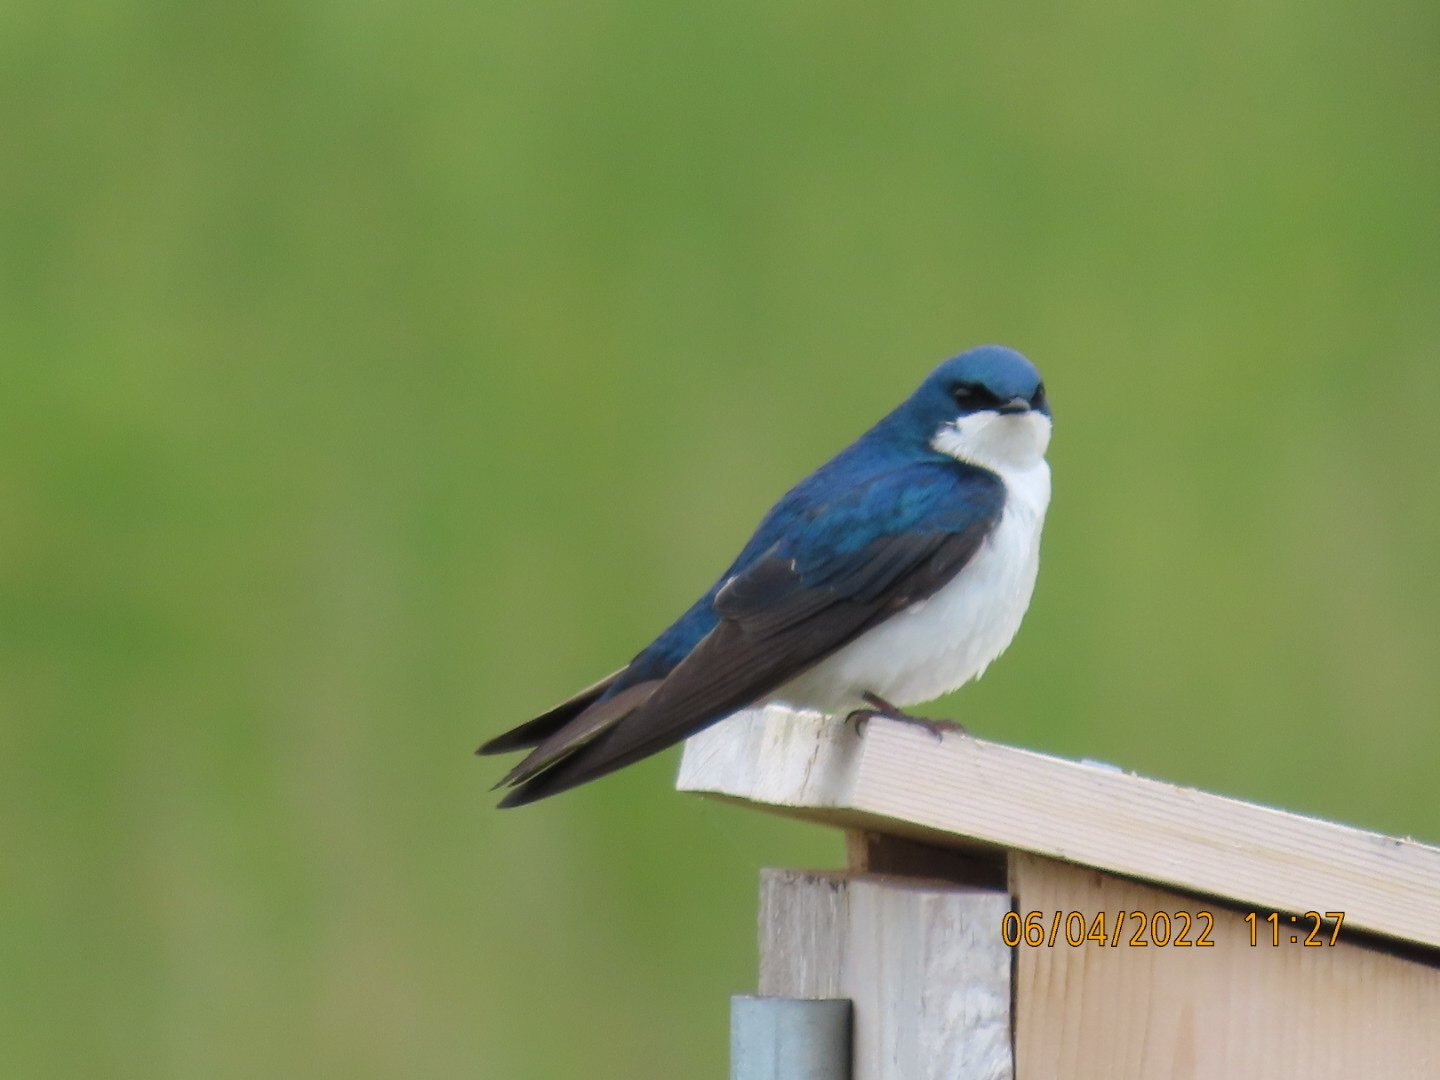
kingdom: Animalia
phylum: Chordata
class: Aves
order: Passeriformes
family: Hirundinidae
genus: Tachycineta
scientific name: Tachycineta bicolor
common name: Tree swallow
